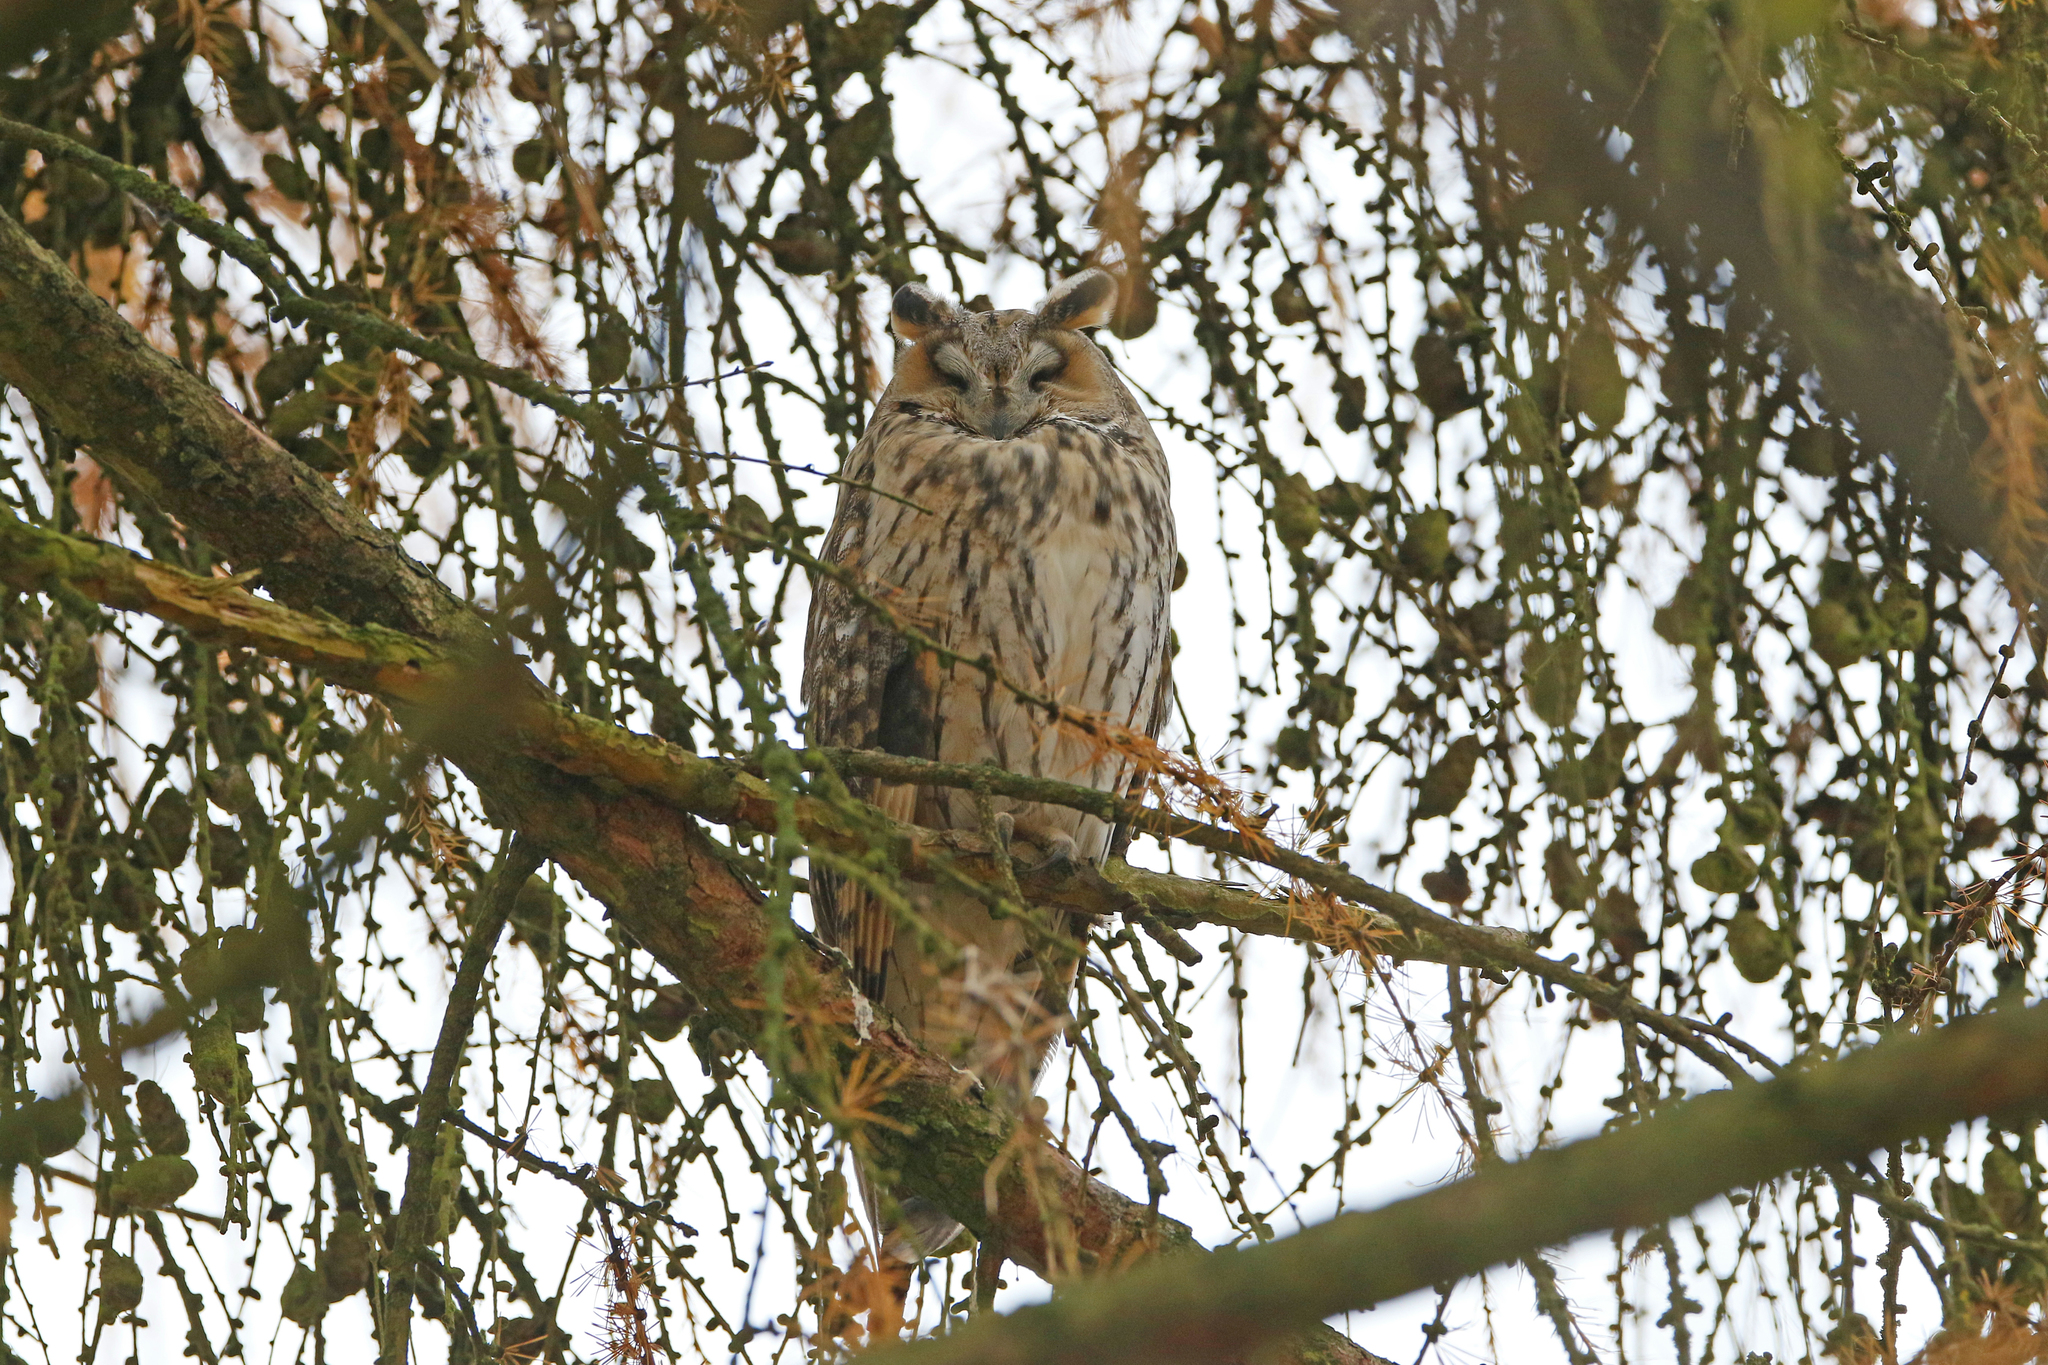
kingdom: Animalia
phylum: Chordata
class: Aves
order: Strigiformes
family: Strigidae
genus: Asio
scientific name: Asio otus
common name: Long-eared owl
